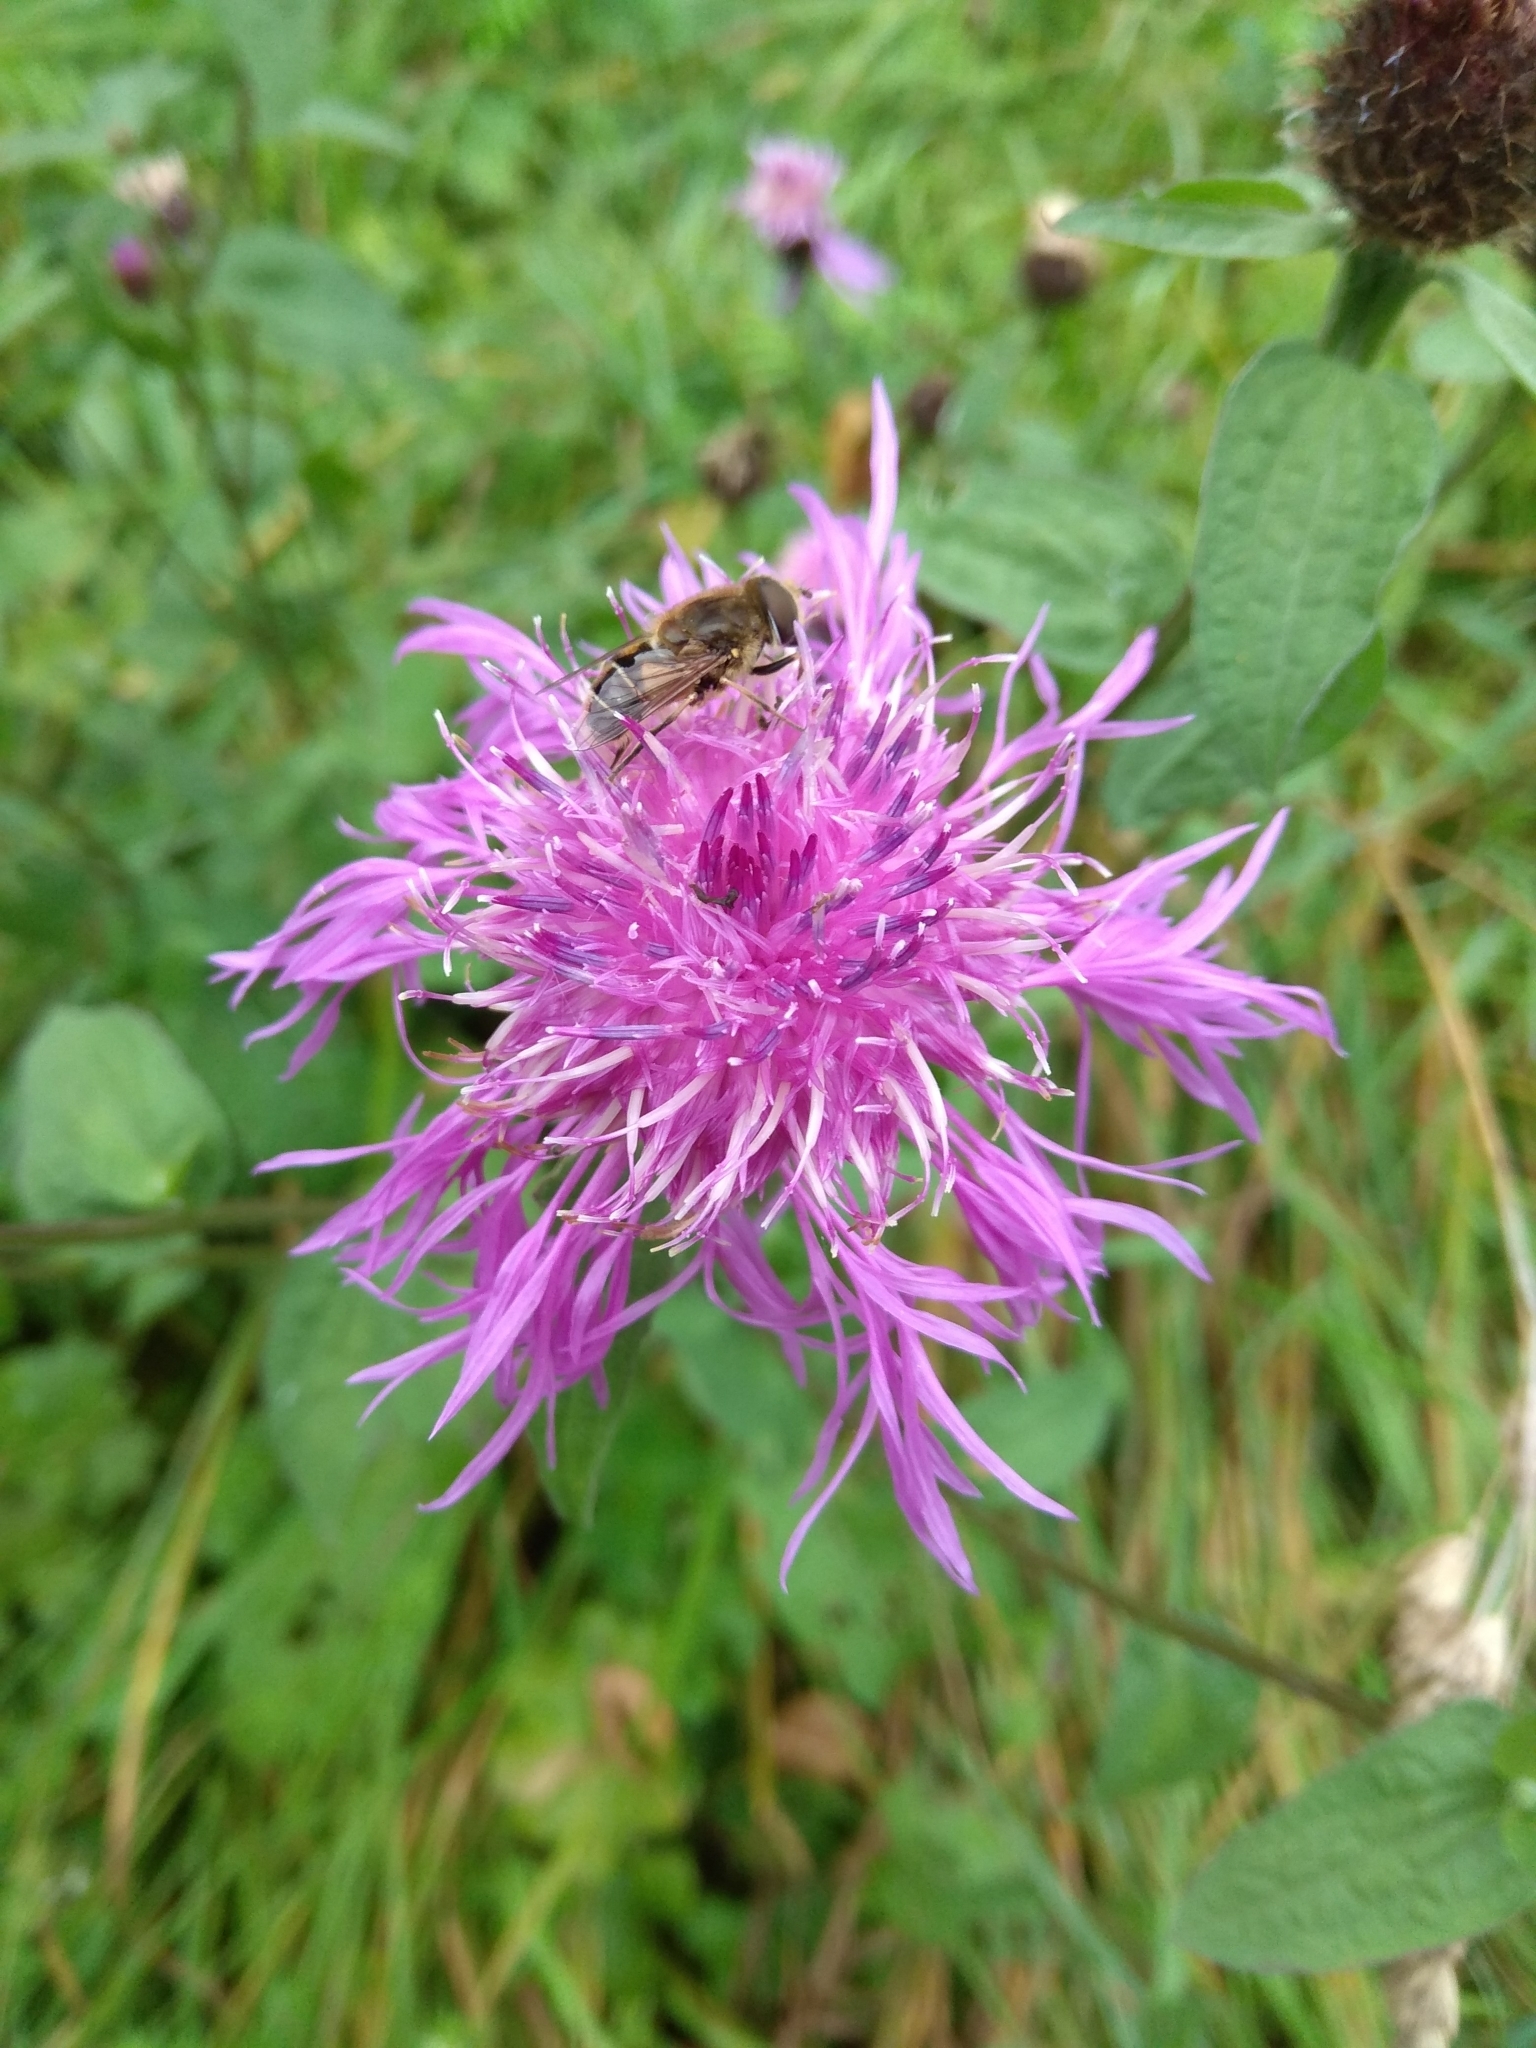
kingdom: Plantae
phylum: Tracheophyta
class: Magnoliopsida
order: Asterales
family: Asteraceae
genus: Centaurea
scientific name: Centaurea pseudophrygia
